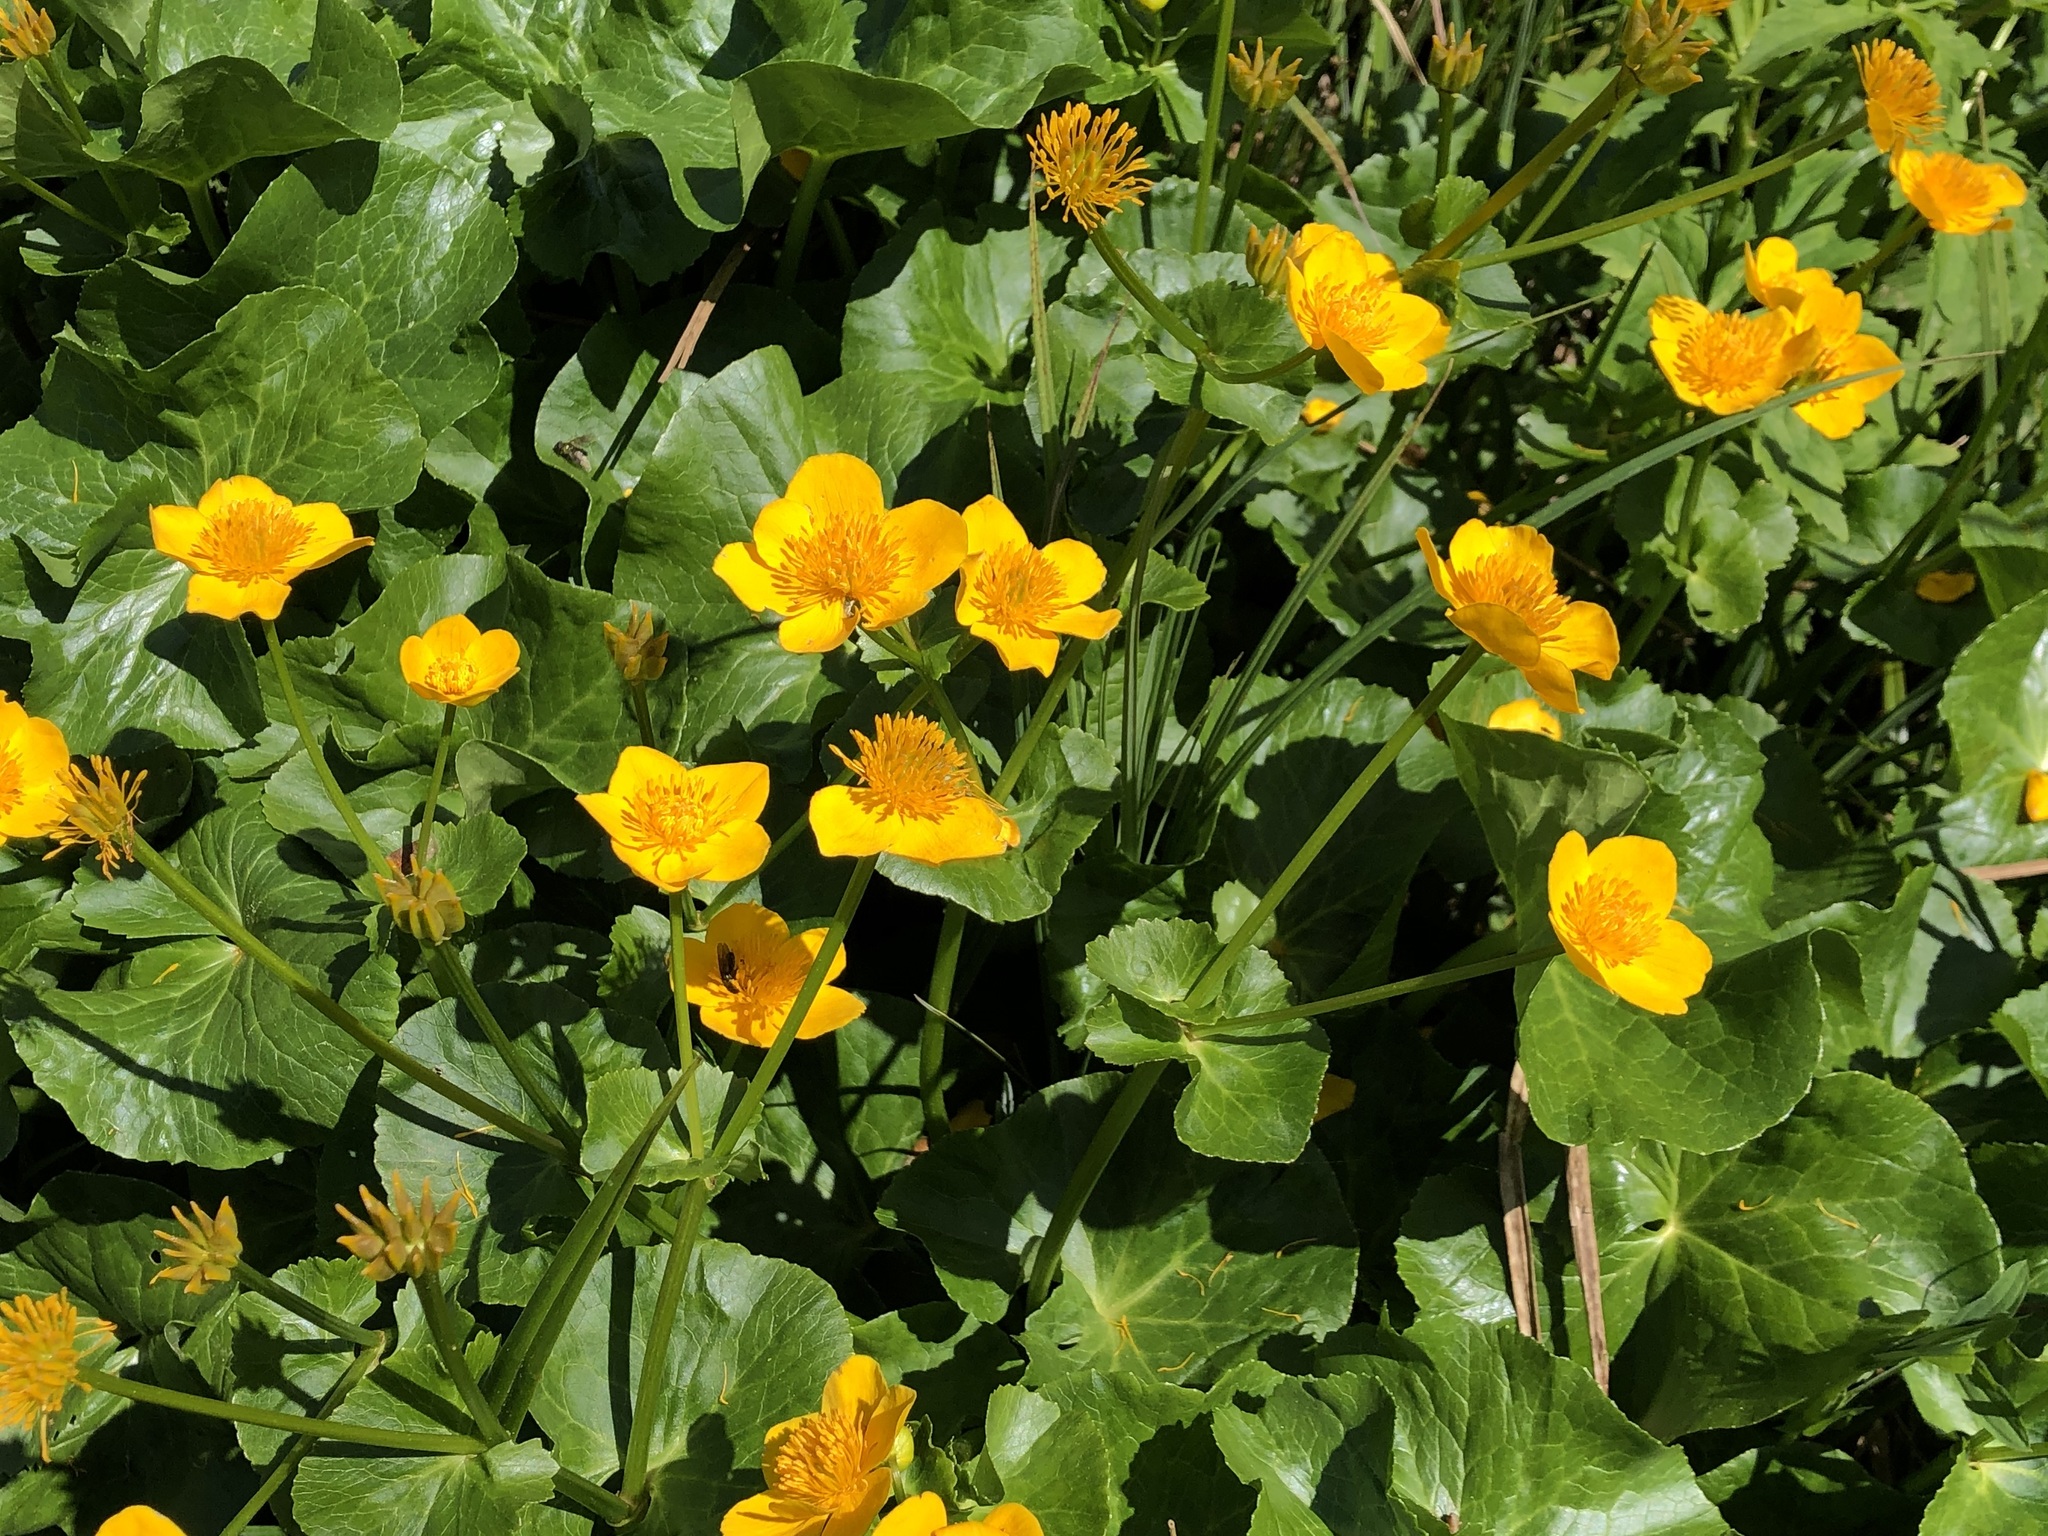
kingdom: Plantae
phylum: Tracheophyta
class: Magnoliopsida
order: Ranunculales
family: Ranunculaceae
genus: Caltha
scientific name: Caltha palustris
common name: Marsh marigold
